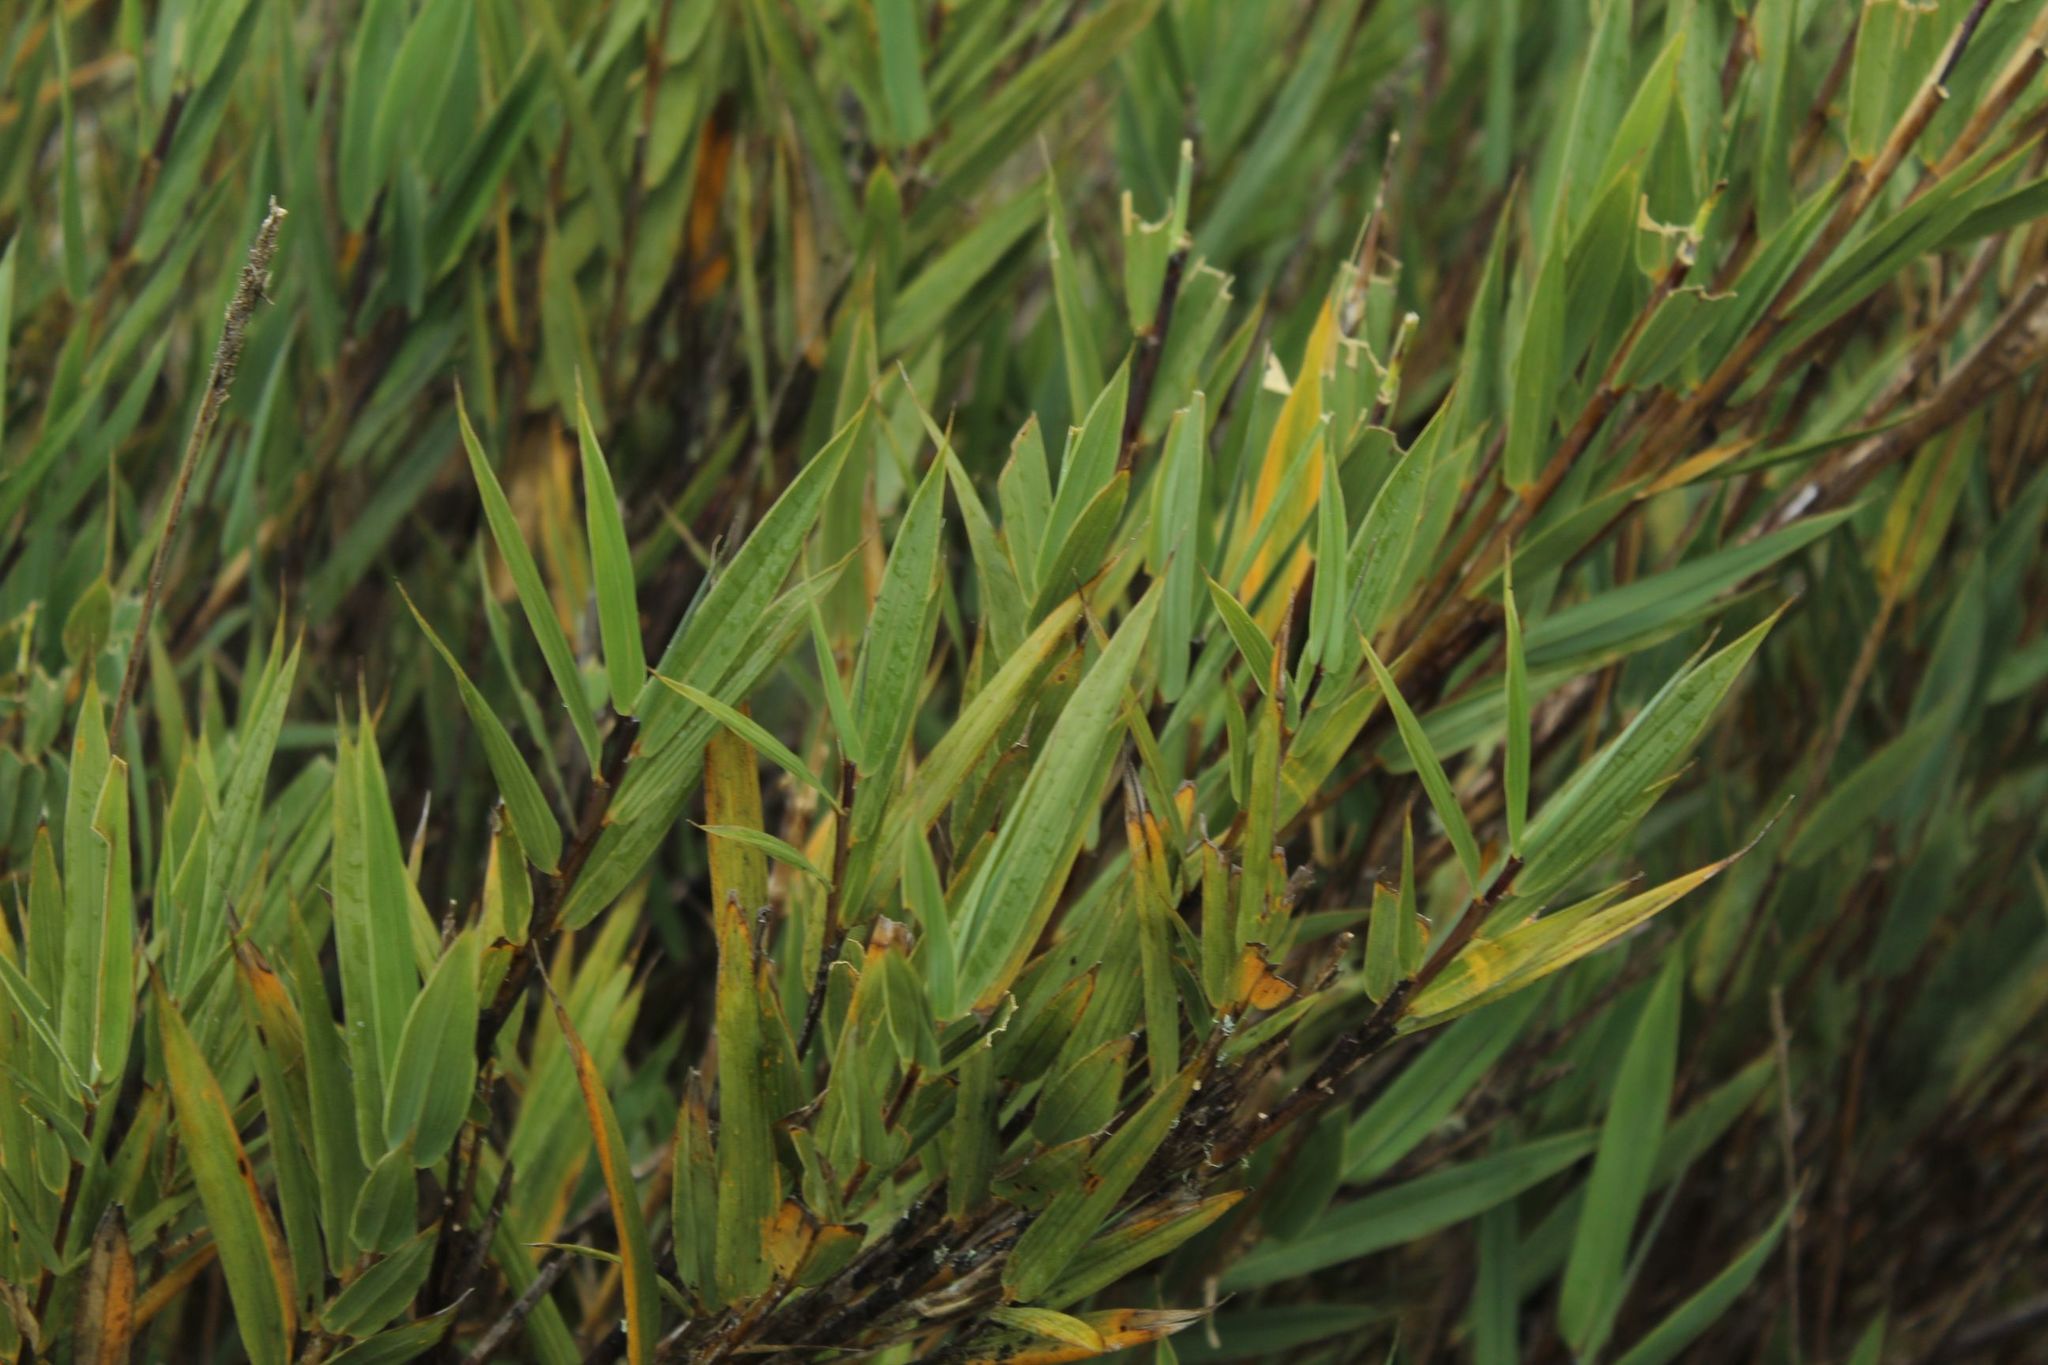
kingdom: Plantae
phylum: Tracheophyta
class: Liliopsida
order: Poales
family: Poaceae
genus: Chusquea
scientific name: Chusquea tessellata
